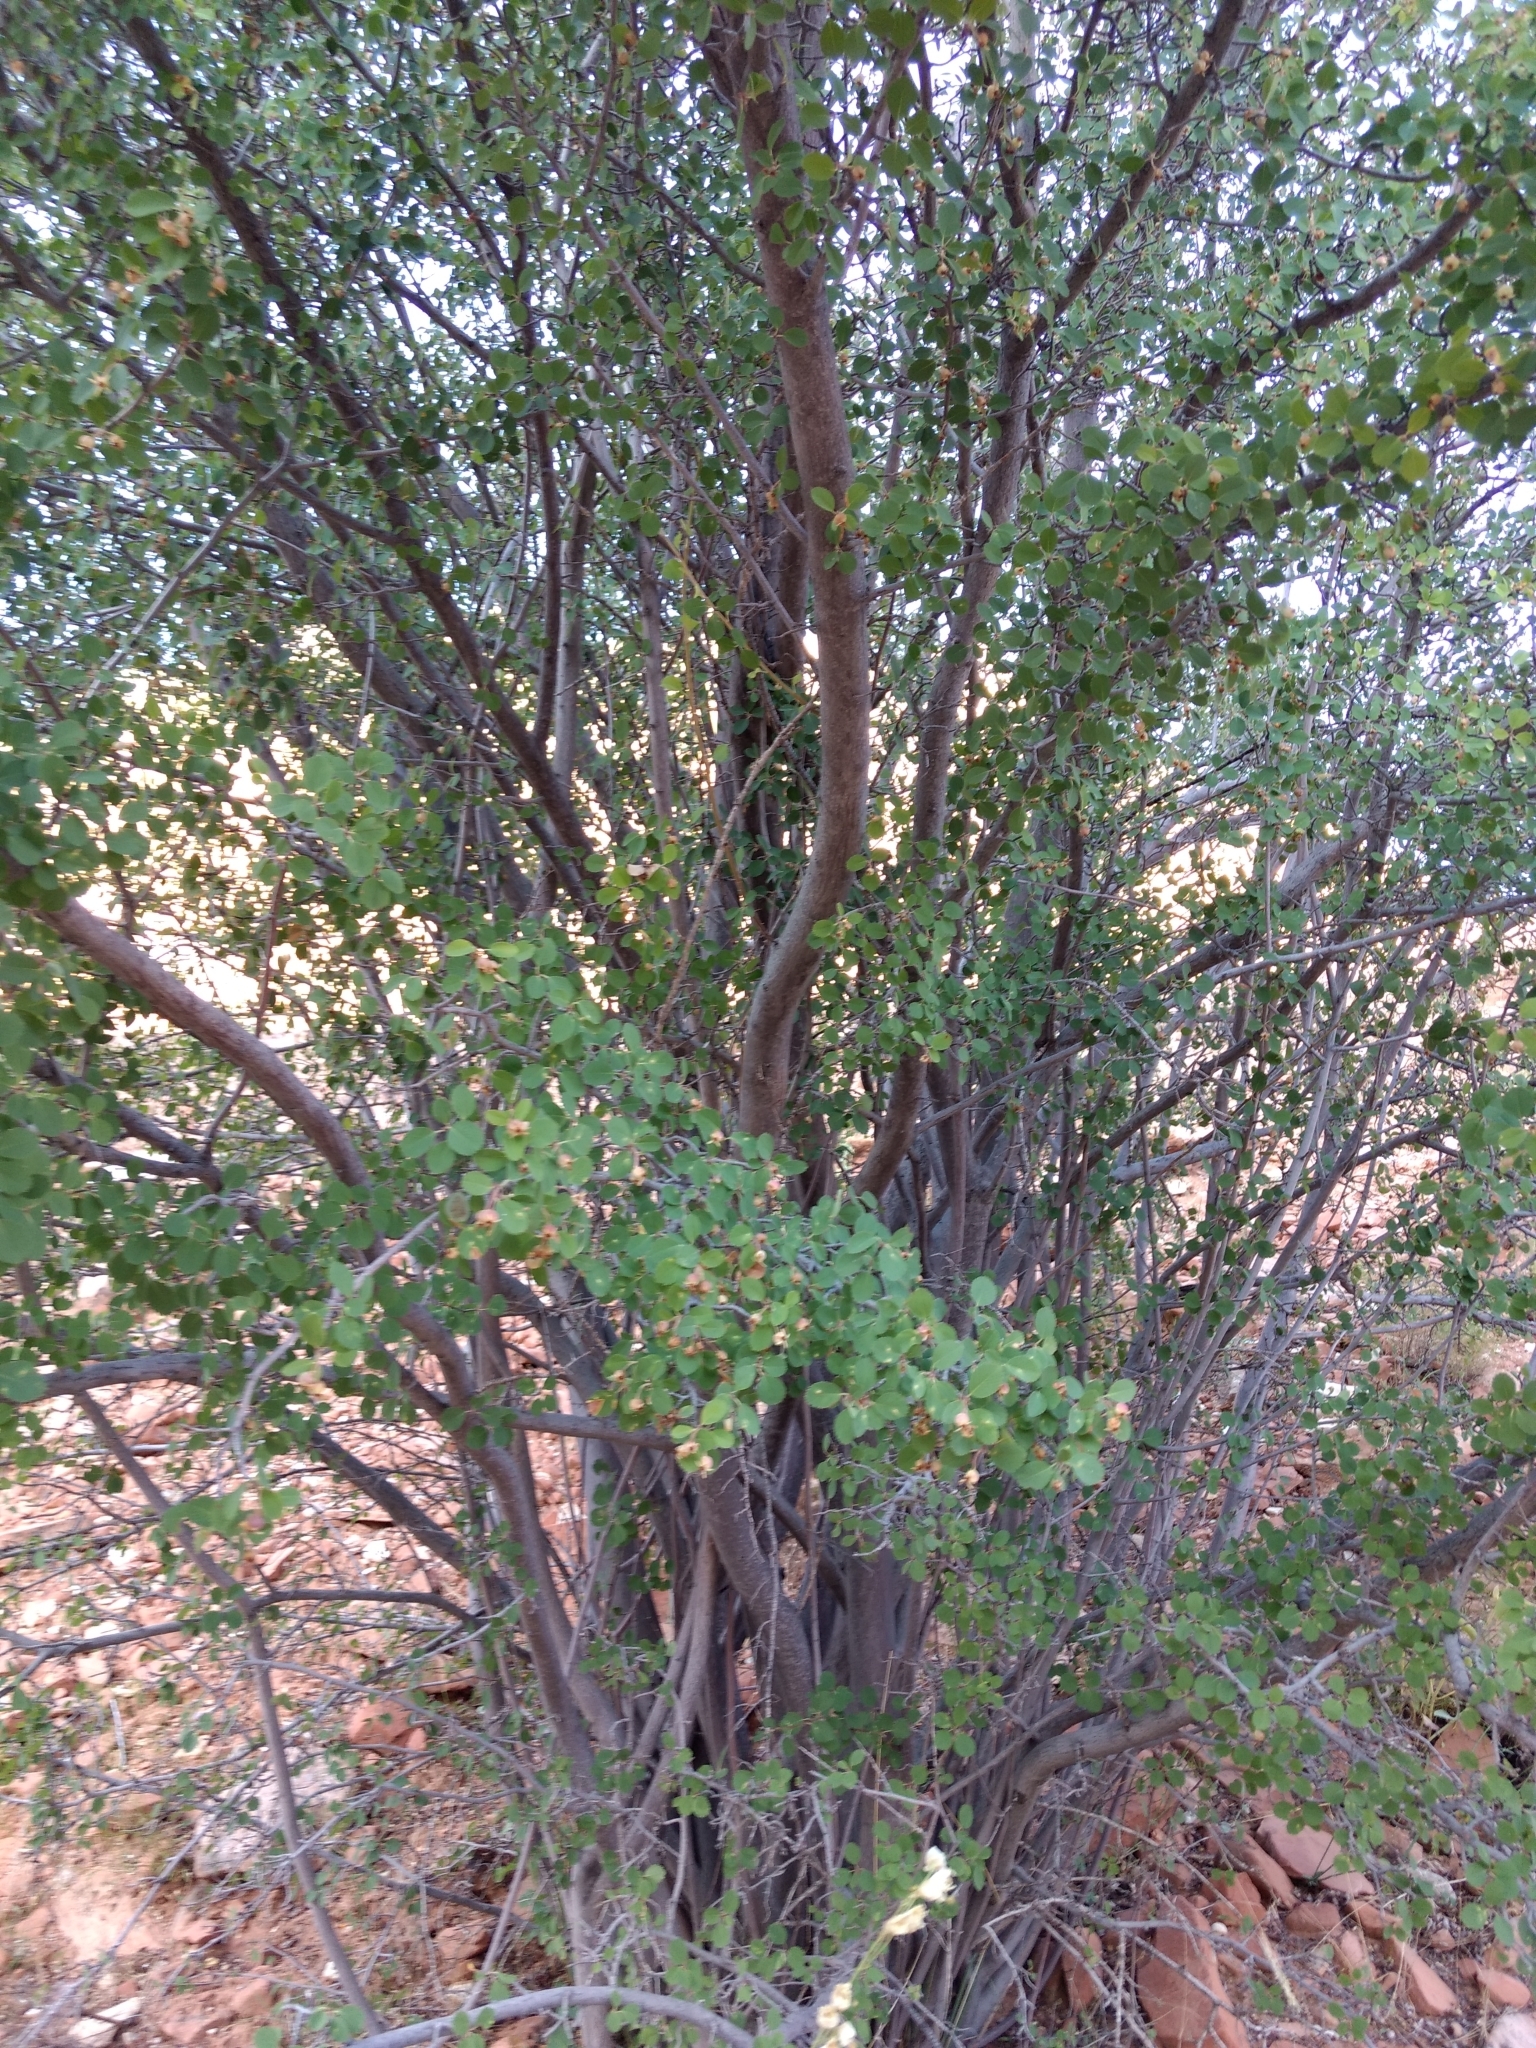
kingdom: Plantae
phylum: Tracheophyta
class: Magnoliopsida
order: Rosales
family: Rosaceae
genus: Amelanchier
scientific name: Amelanchier utahensis
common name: Utah serviceberry
